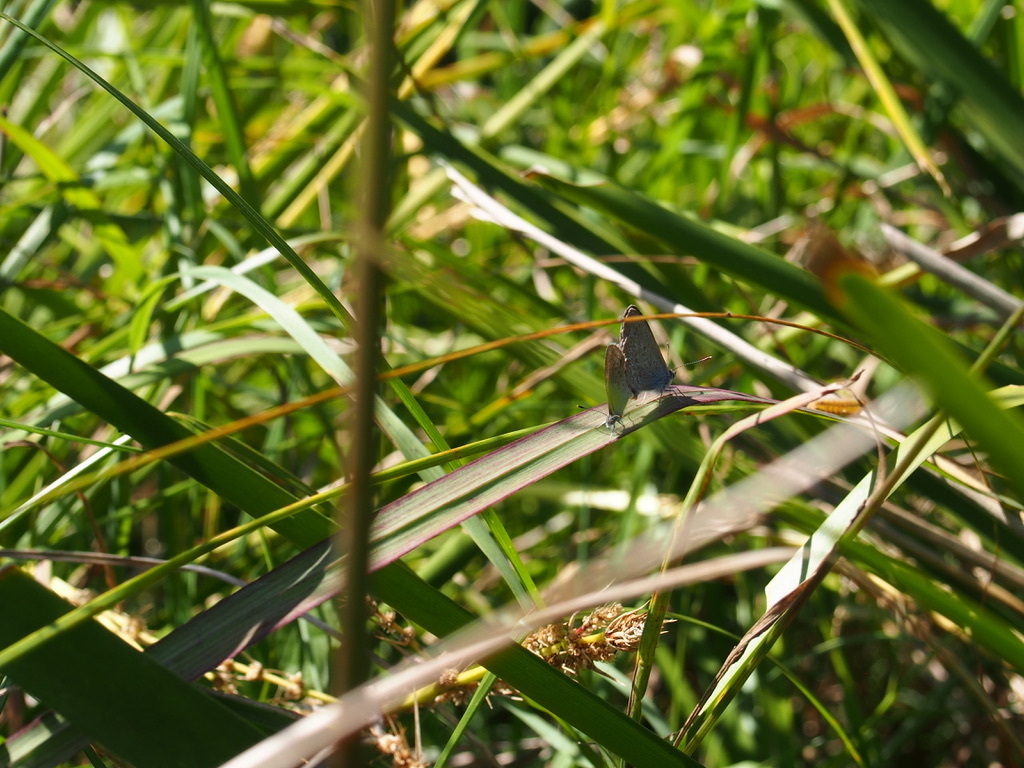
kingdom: Animalia
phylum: Arthropoda
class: Insecta
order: Lepidoptera
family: Lycaenidae
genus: Zizina
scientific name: Zizina labradus
